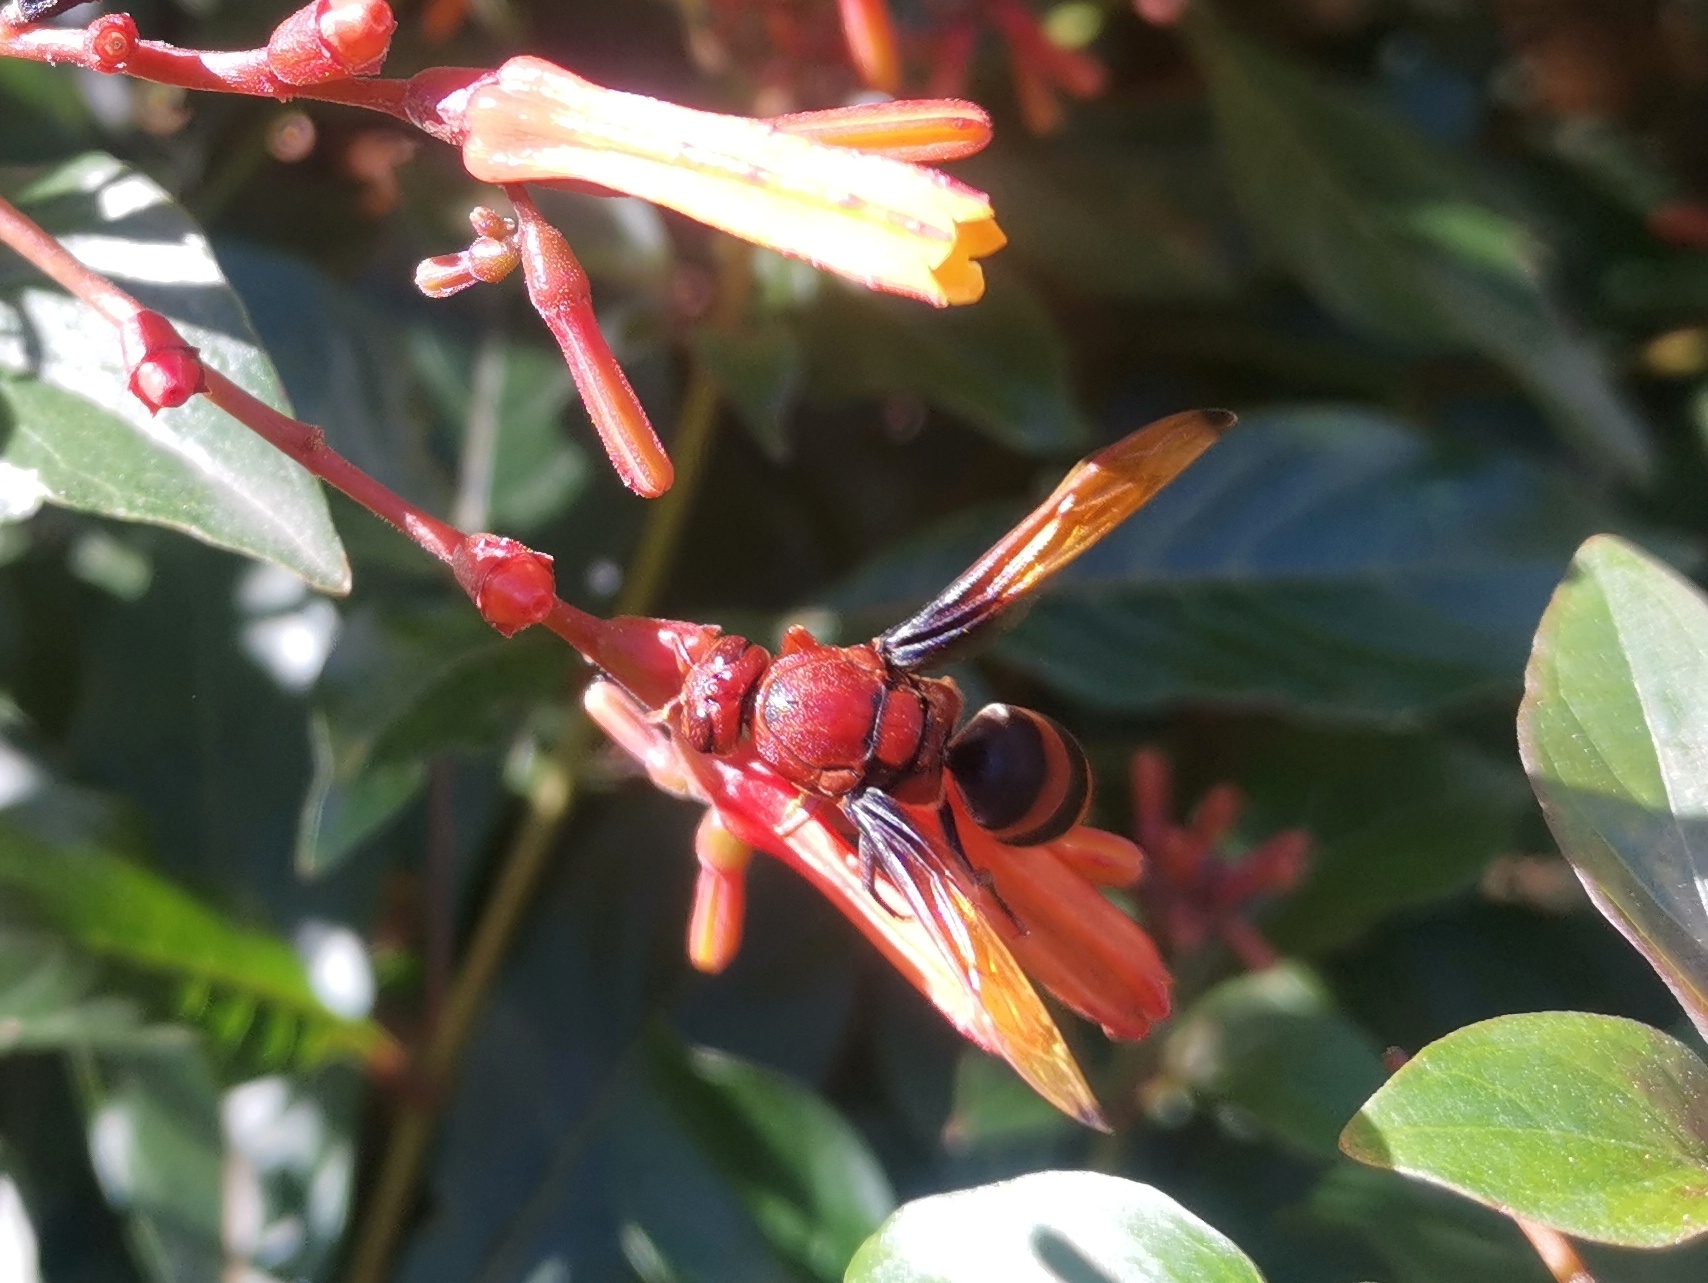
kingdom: Animalia
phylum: Arthropoda
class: Insecta
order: Hymenoptera
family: Eumenidae
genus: Rhynchium
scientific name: Rhynchium brunneum
